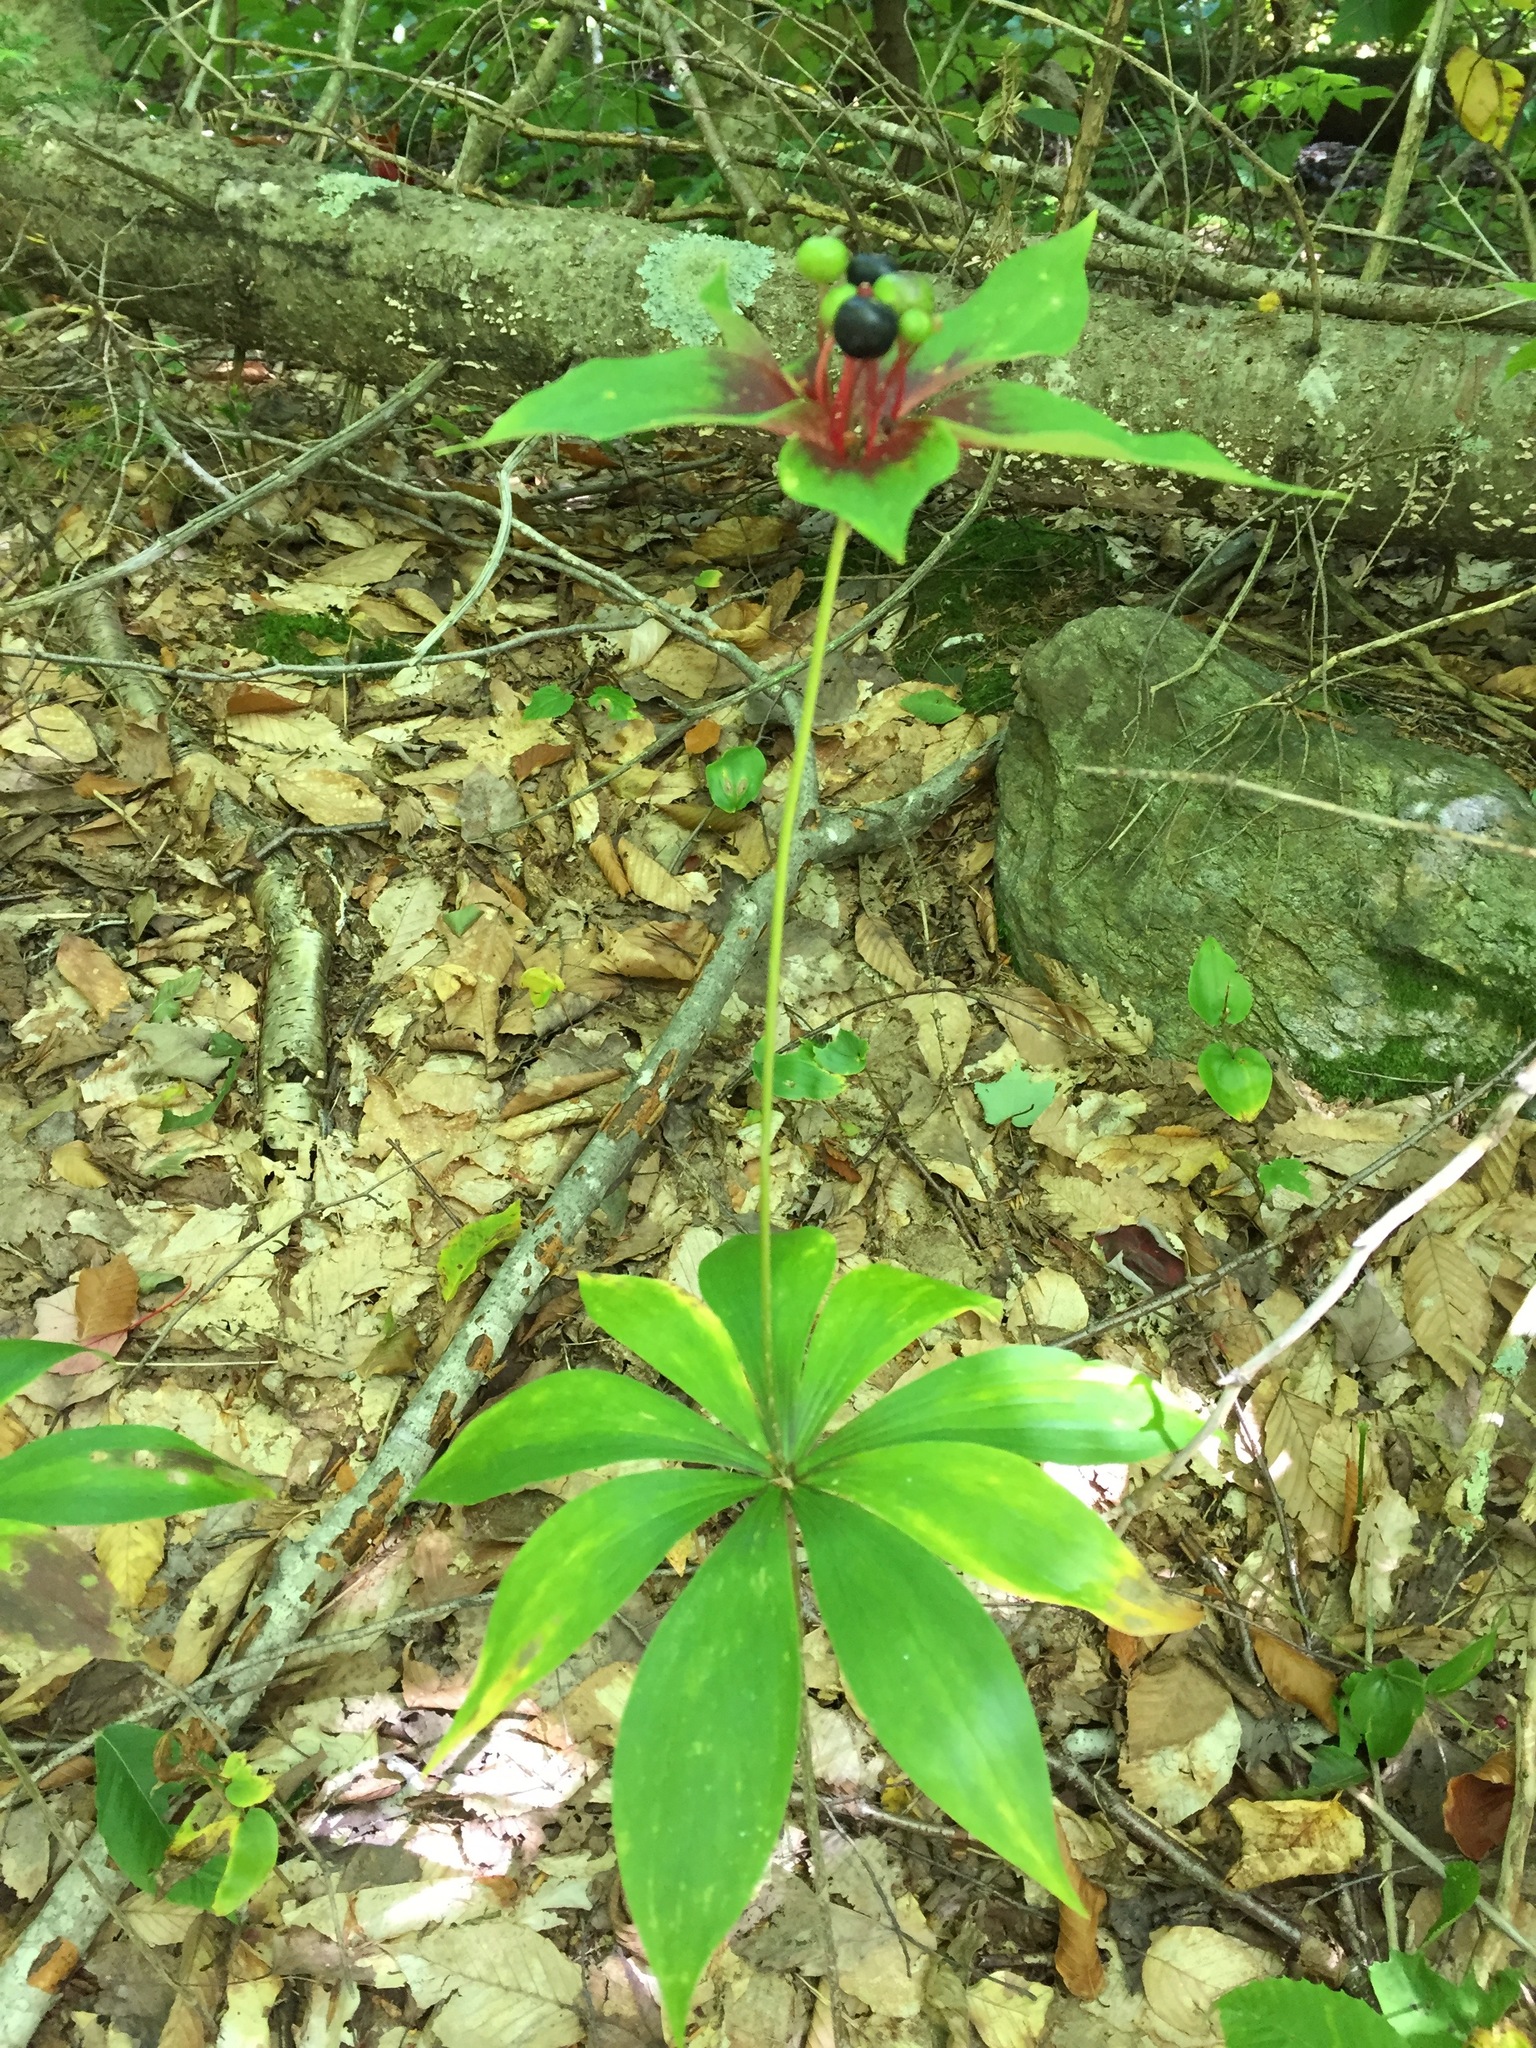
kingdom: Plantae
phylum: Tracheophyta
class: Liliopsida
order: Liliales
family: Liliaceae
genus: Medeola
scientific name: Medeola virginiana
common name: Indian cucumber-root
